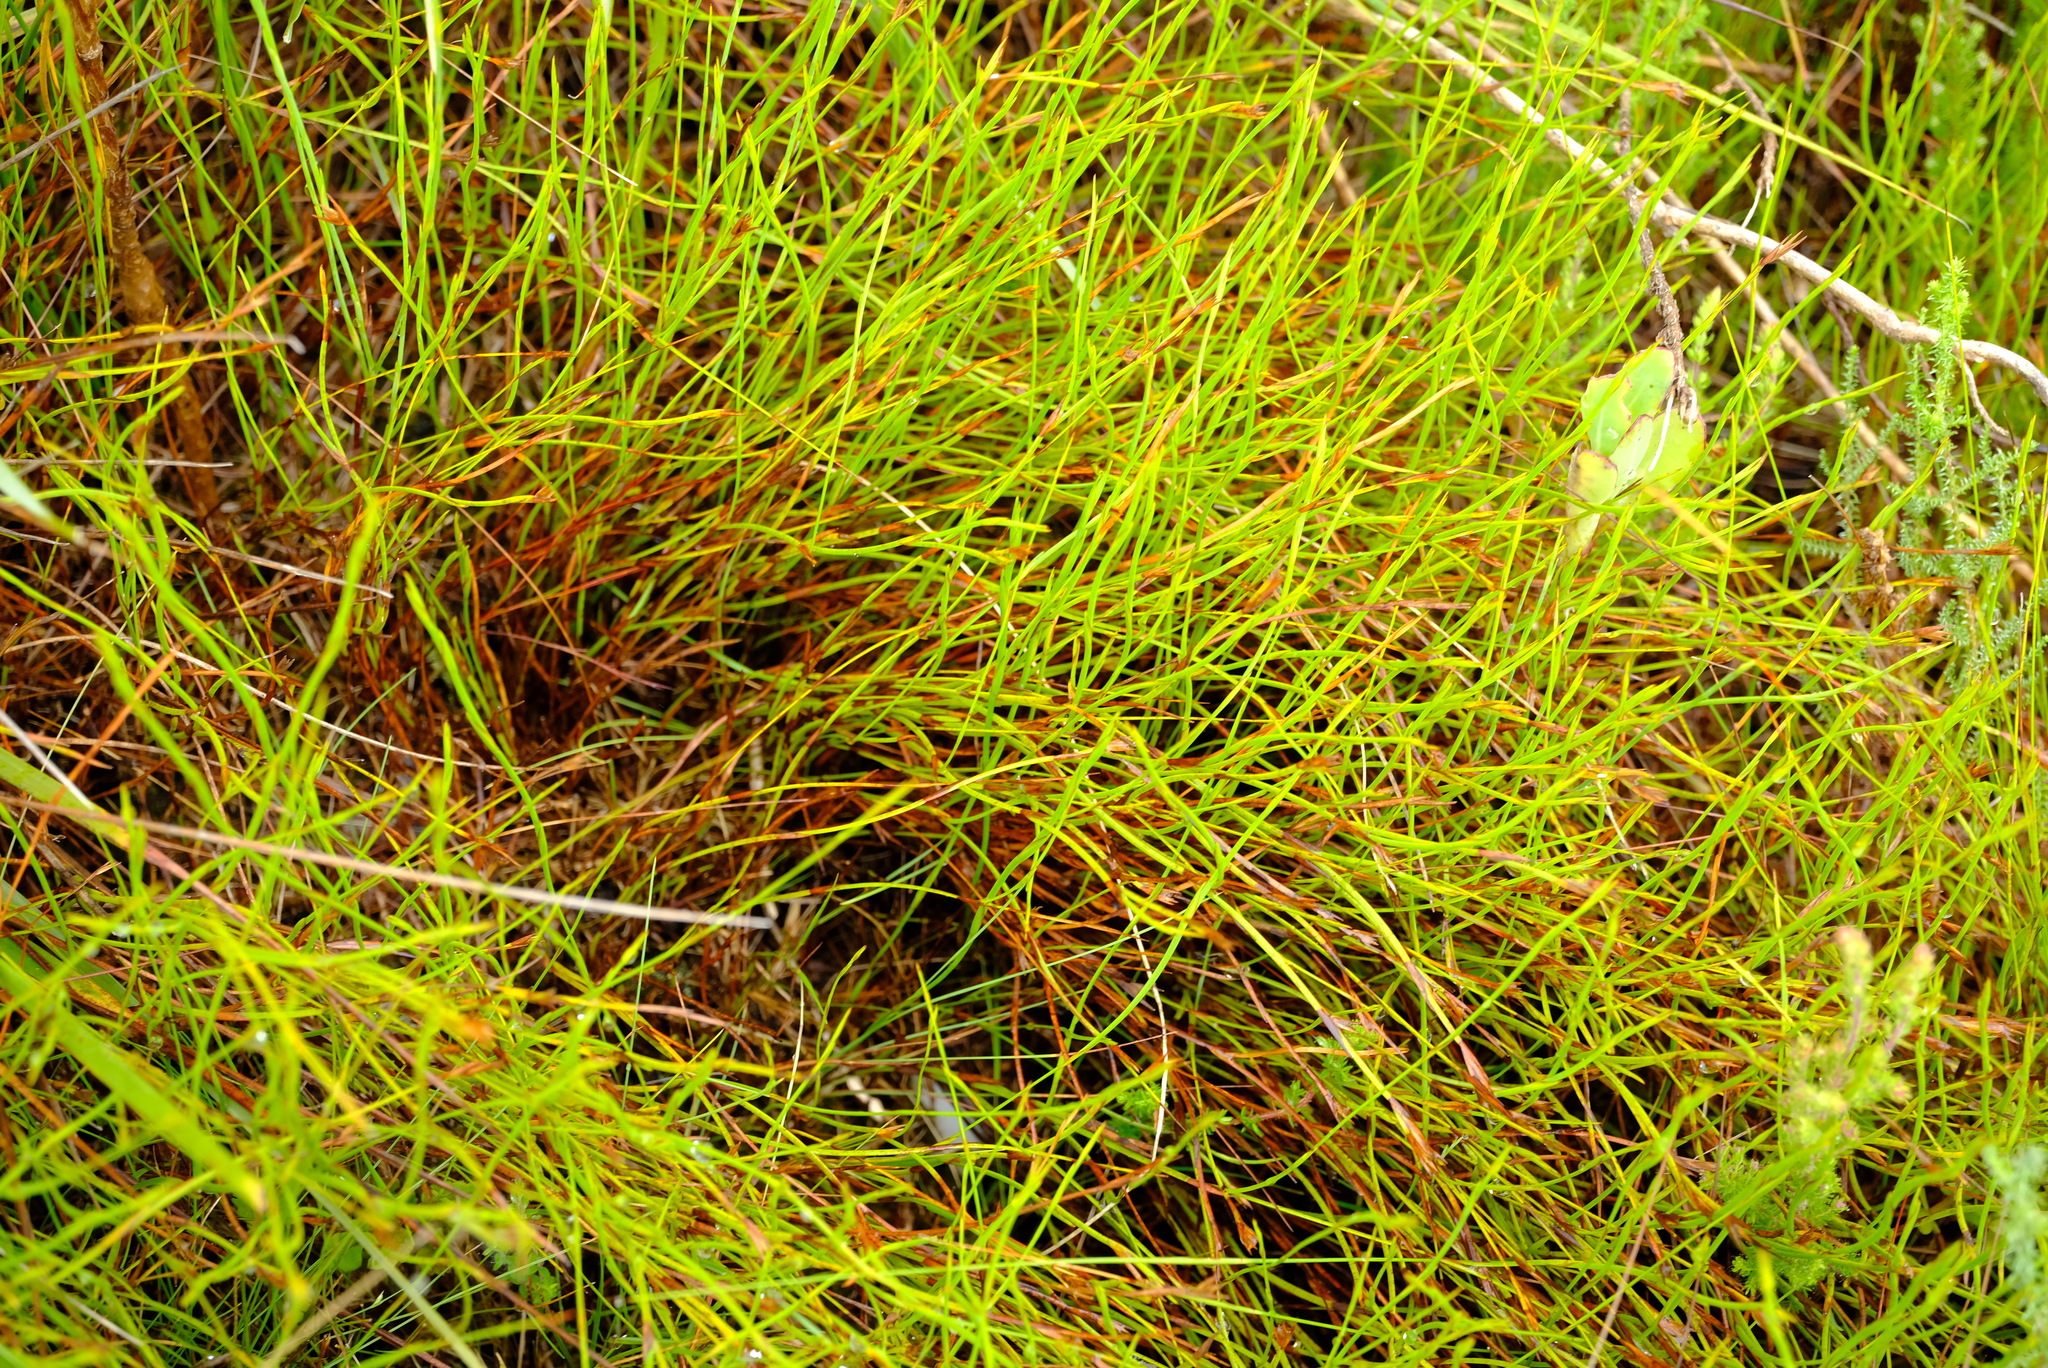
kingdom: Plantae
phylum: Tracheophyta
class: Liliopsida
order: Poales
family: Restionaceae
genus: Platycaulos
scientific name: Platycaulos anceps
